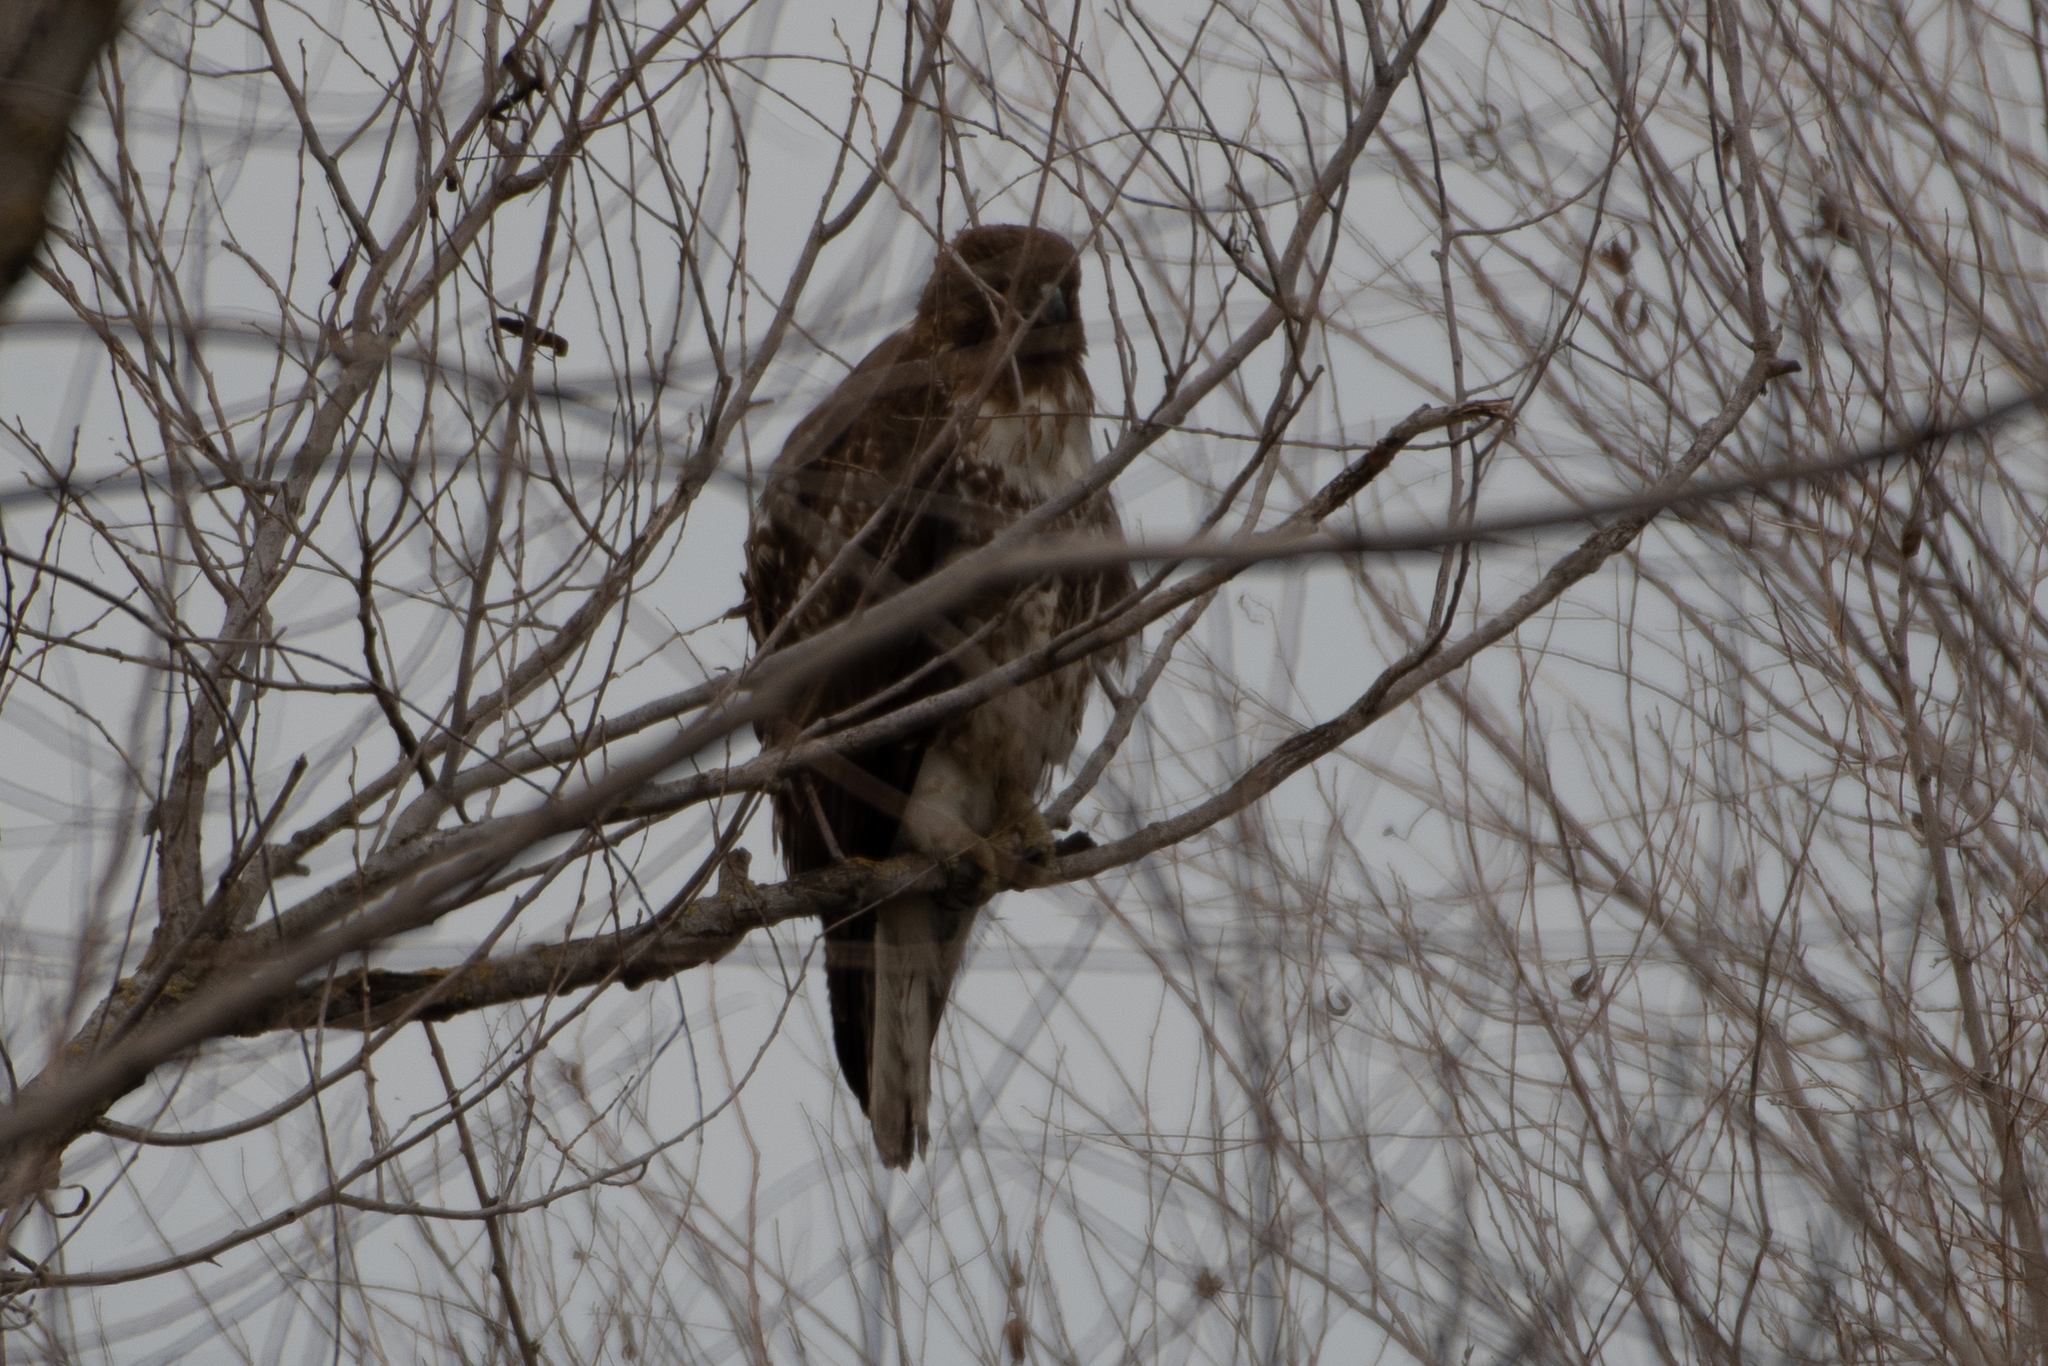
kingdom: Animalia
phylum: Chordata
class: Aves
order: Accipitriformes
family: Accipitridae
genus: Buteo
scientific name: Buteo jamaicensis
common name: Red-tailed hawk
